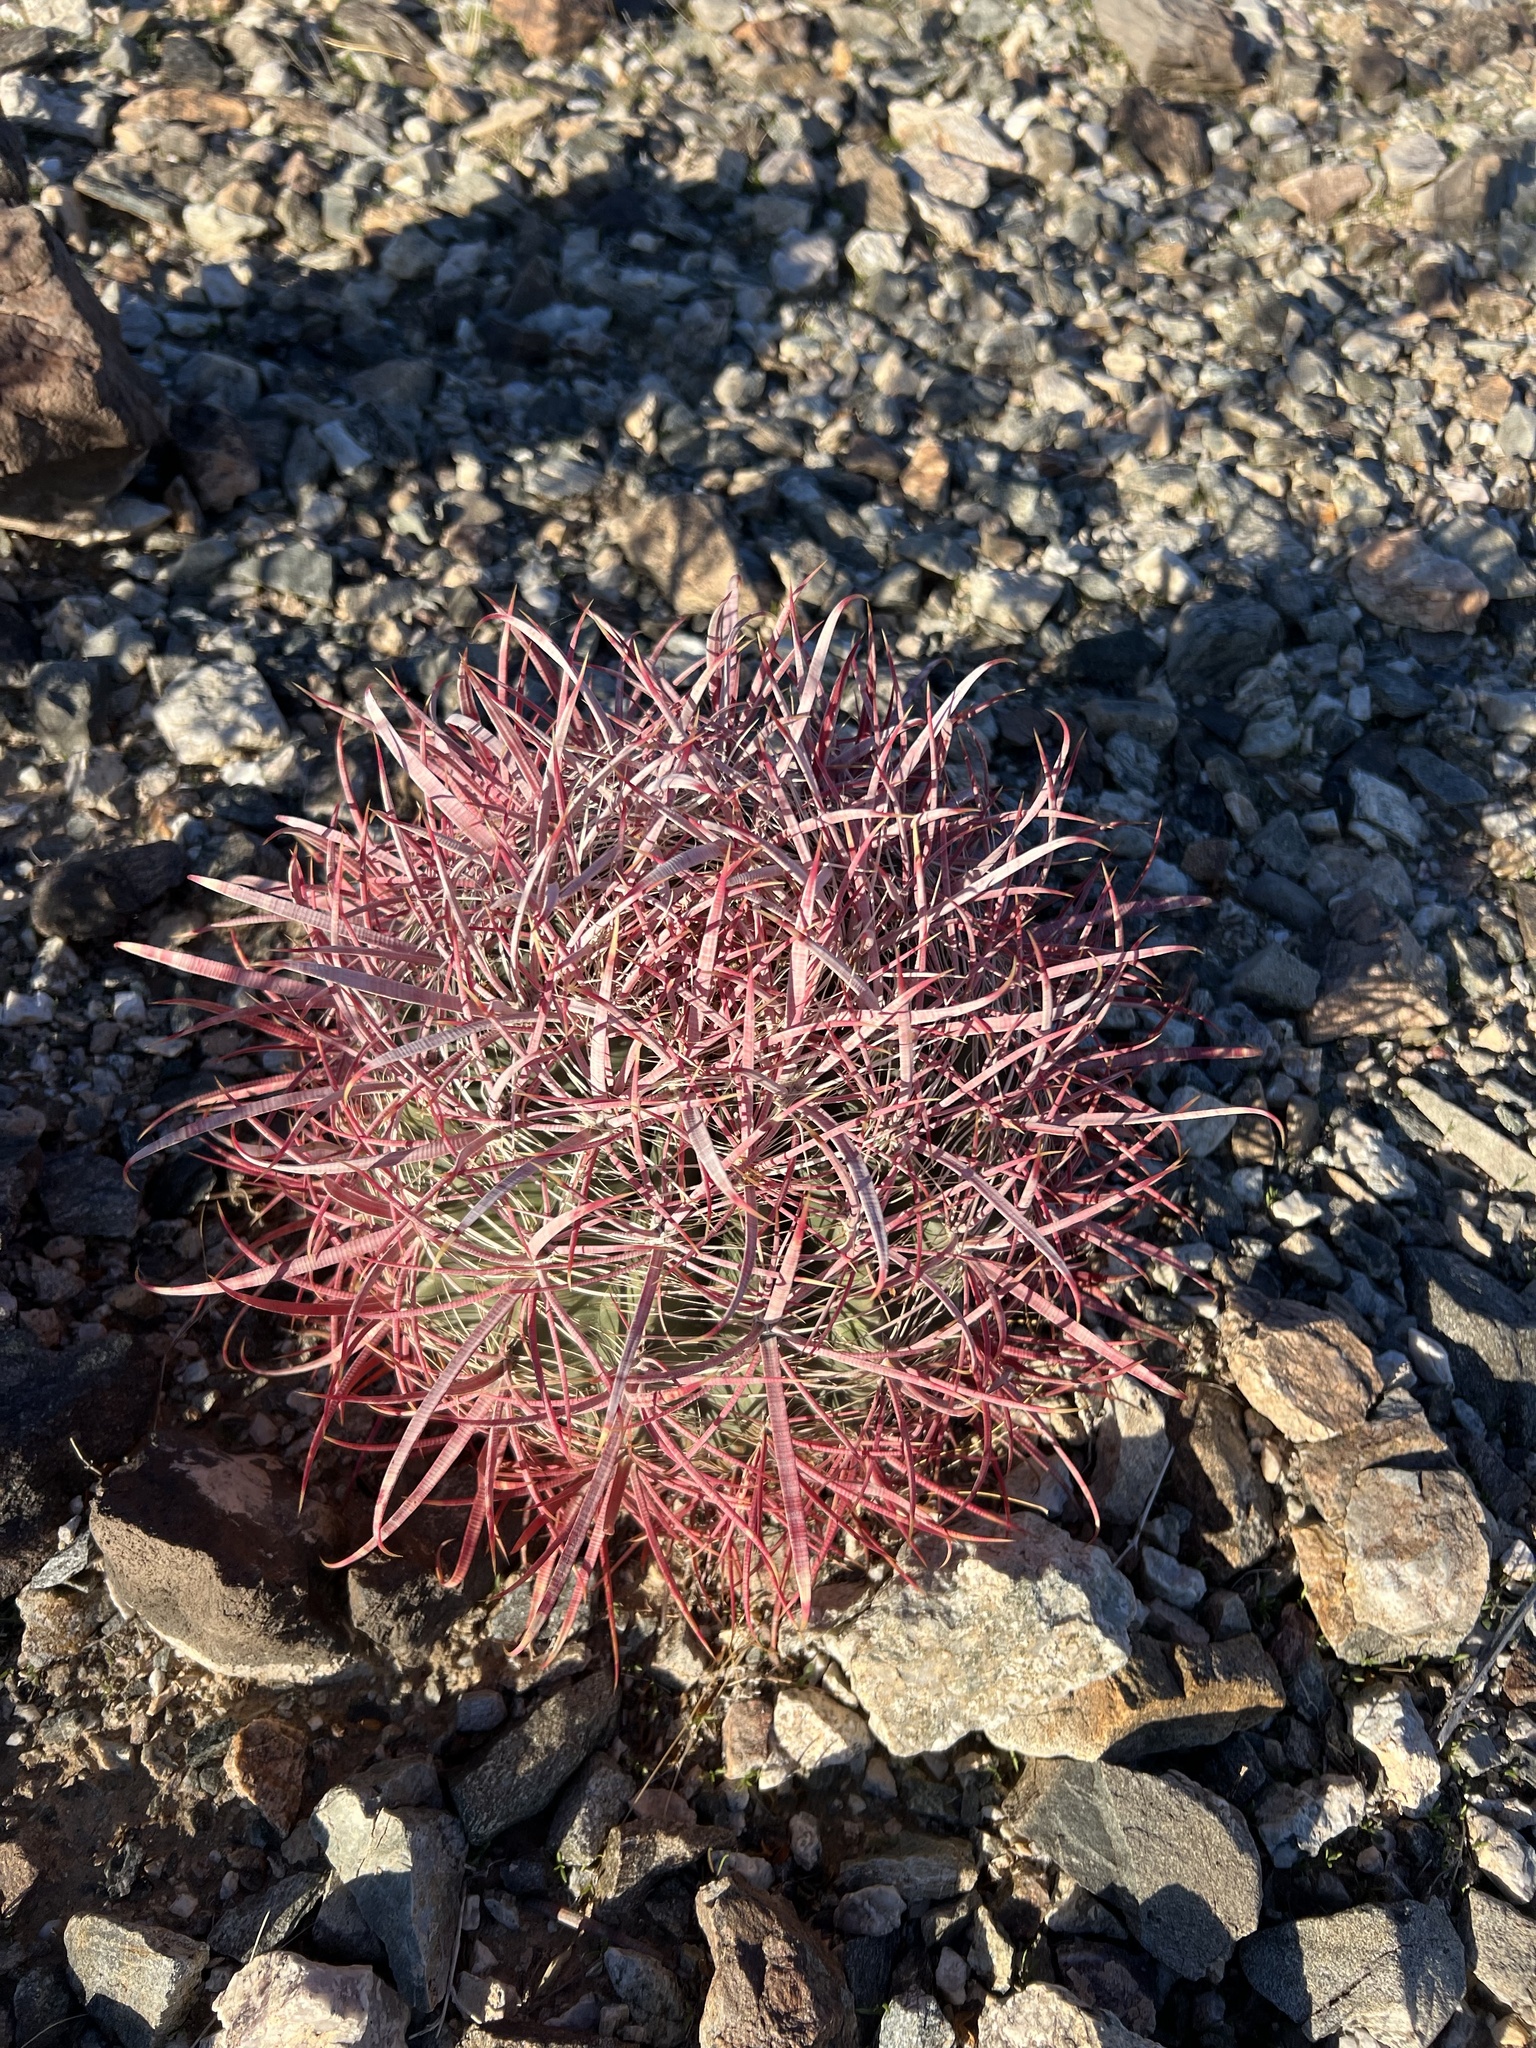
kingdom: Plantae
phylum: Tracheophyta
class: Magnoliopsida
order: Caryophyllales
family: Cactaceae
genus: Ferocactus
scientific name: Ferocactus cylindraceus
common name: California barrel cactus
